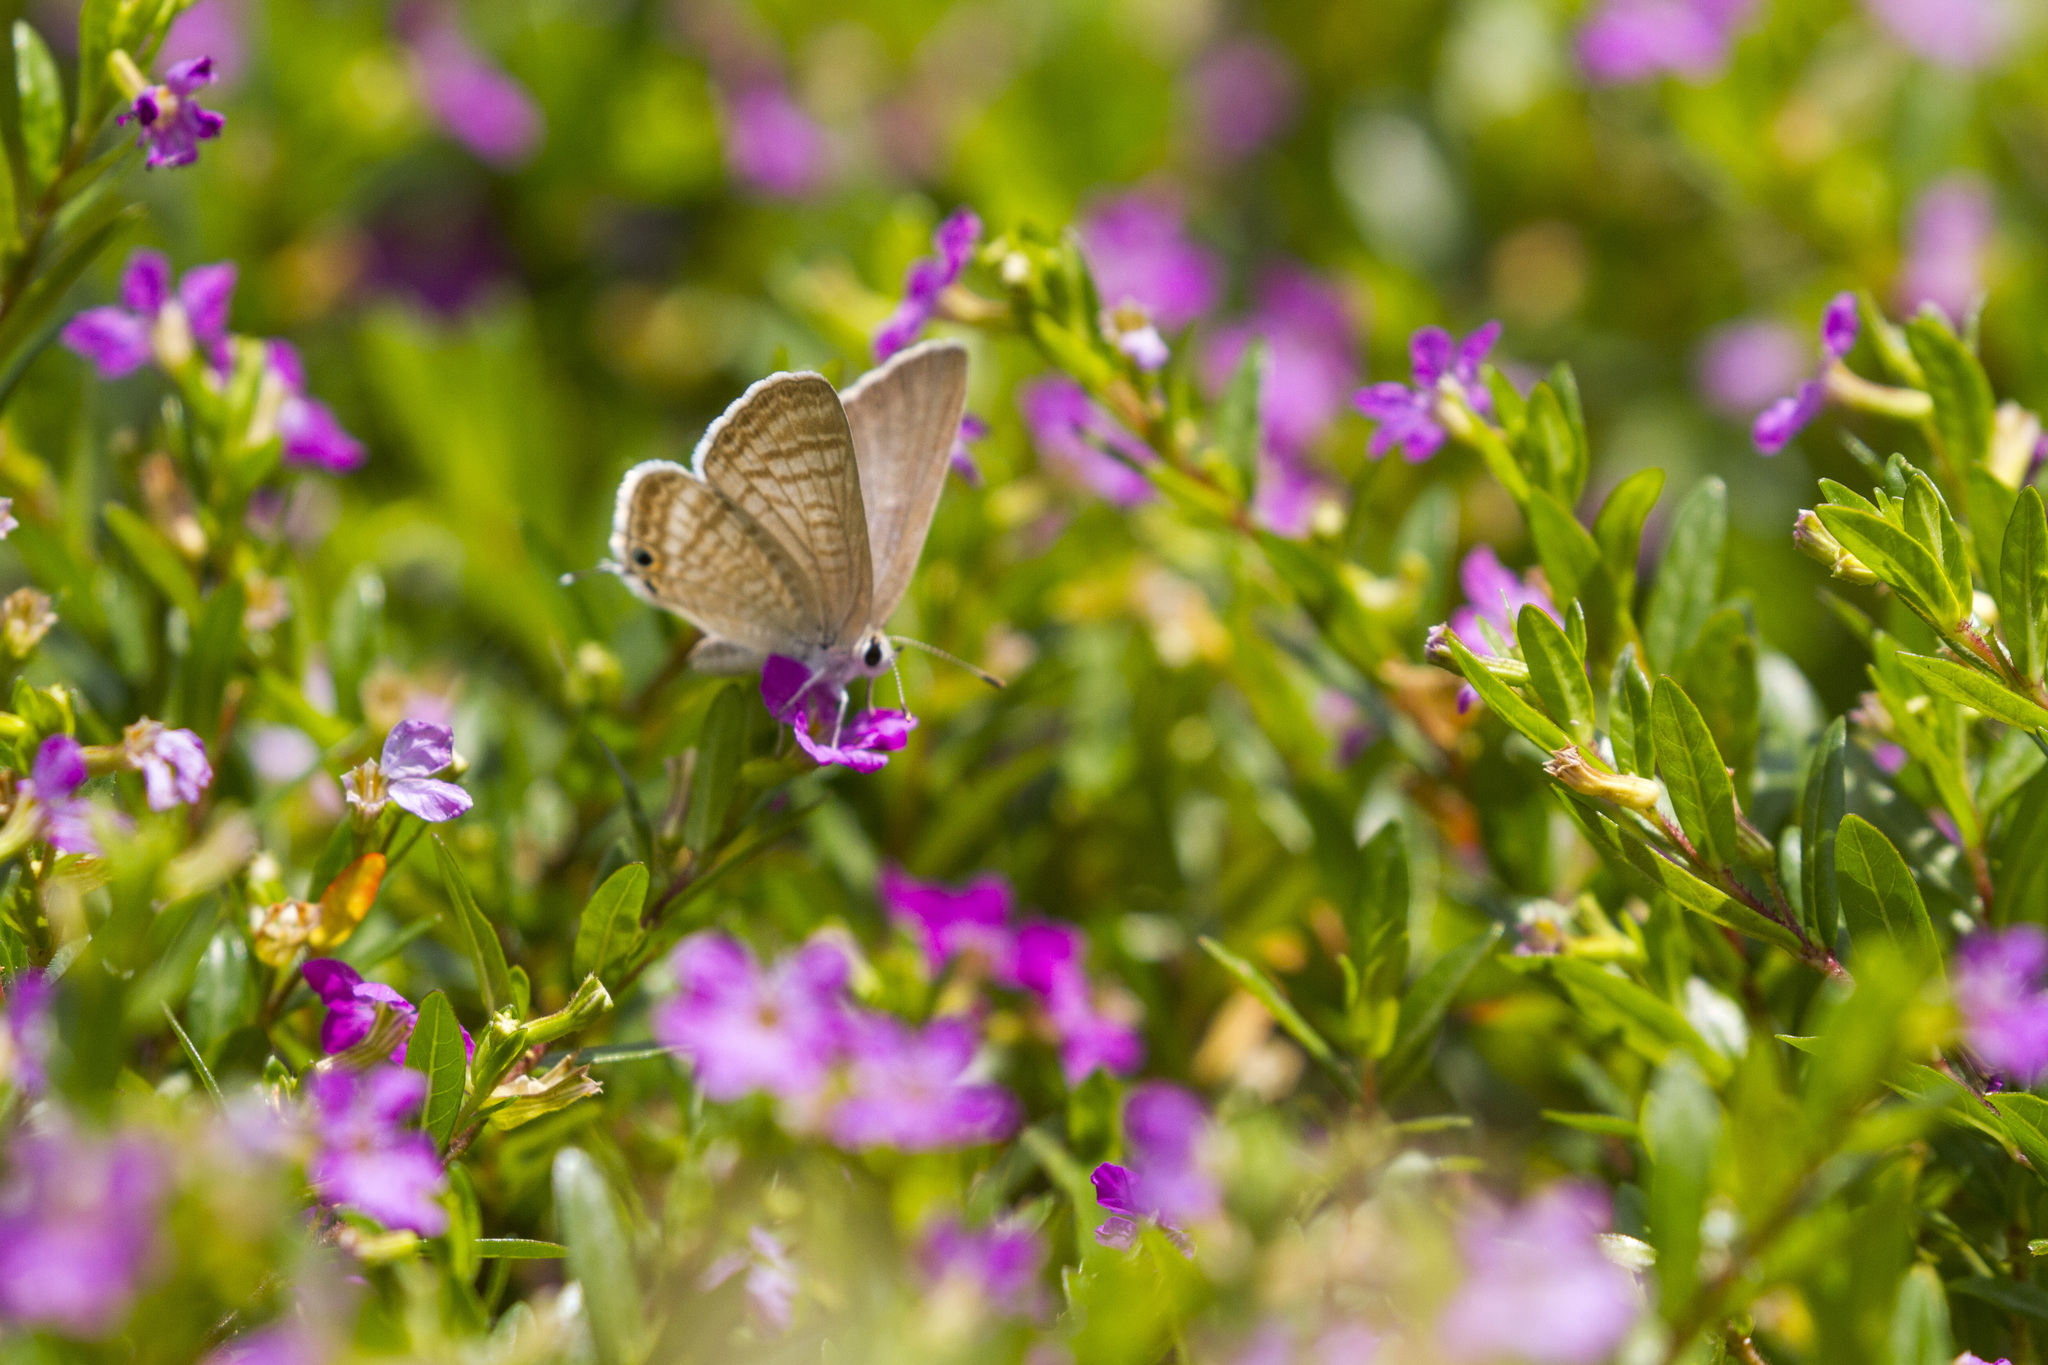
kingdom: Animalia
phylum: Arthropoda
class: Insecta
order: Lepidoptera
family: Lycaenidae
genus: Lampides
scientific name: Lampides boeticus
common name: Long-tailed blue
